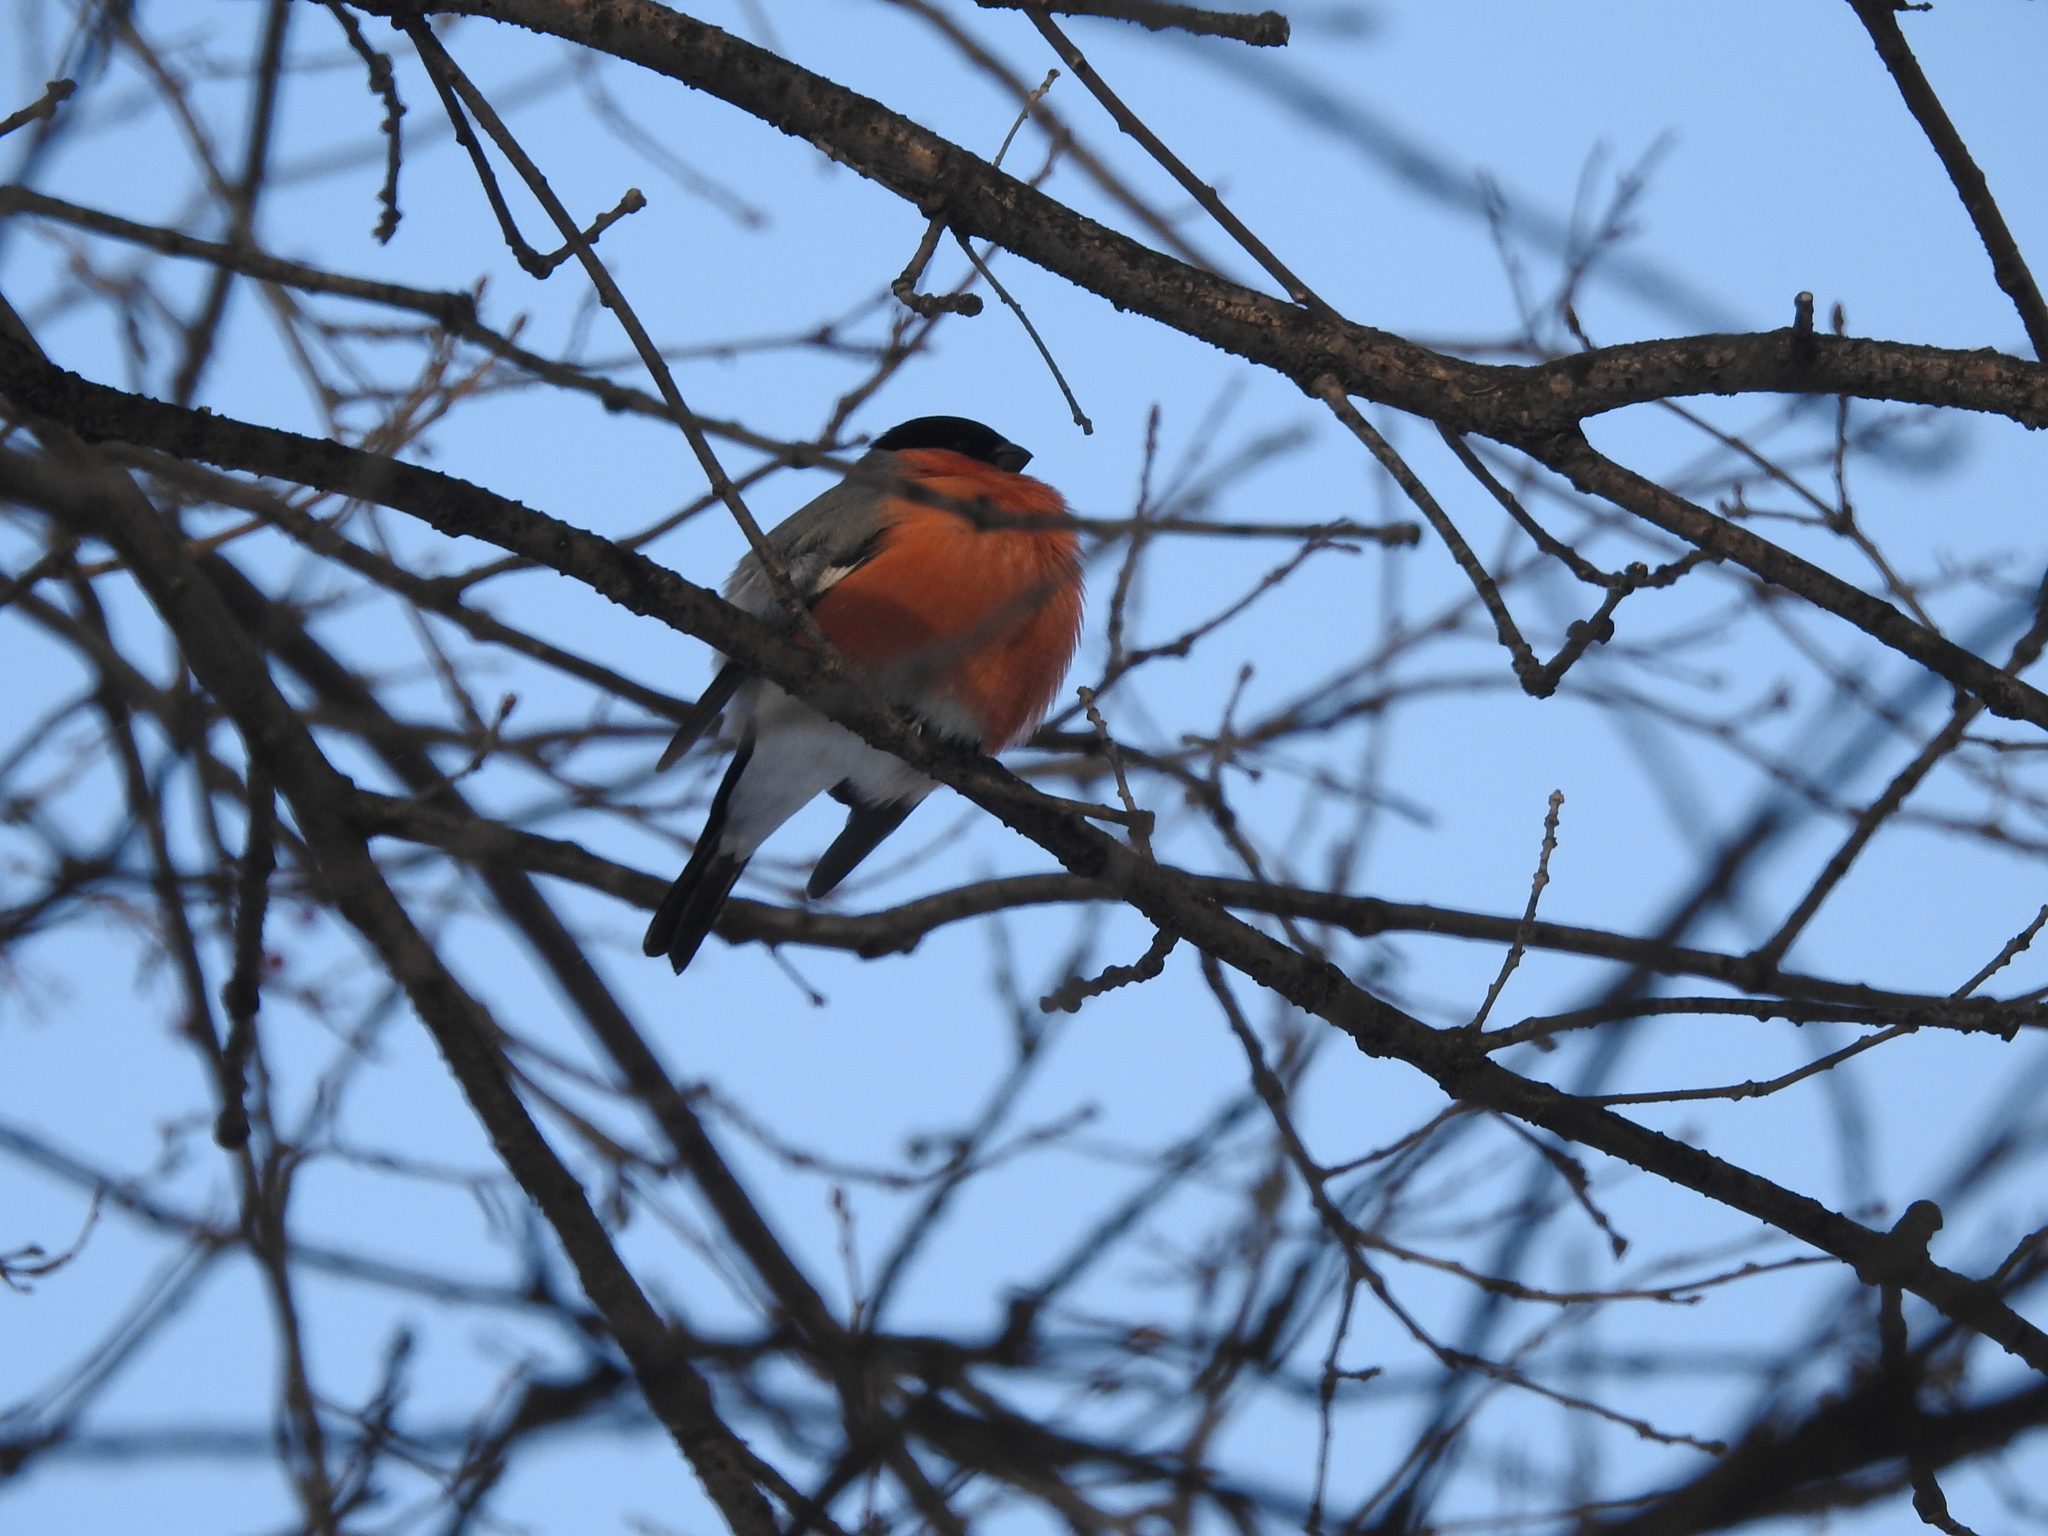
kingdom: Animalia
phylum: Chordata
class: Aves
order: Passeriformes
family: Fringillidae
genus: Pyrrhula
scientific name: Pyrrhula pyrrhula
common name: Eurasian bullfinch
